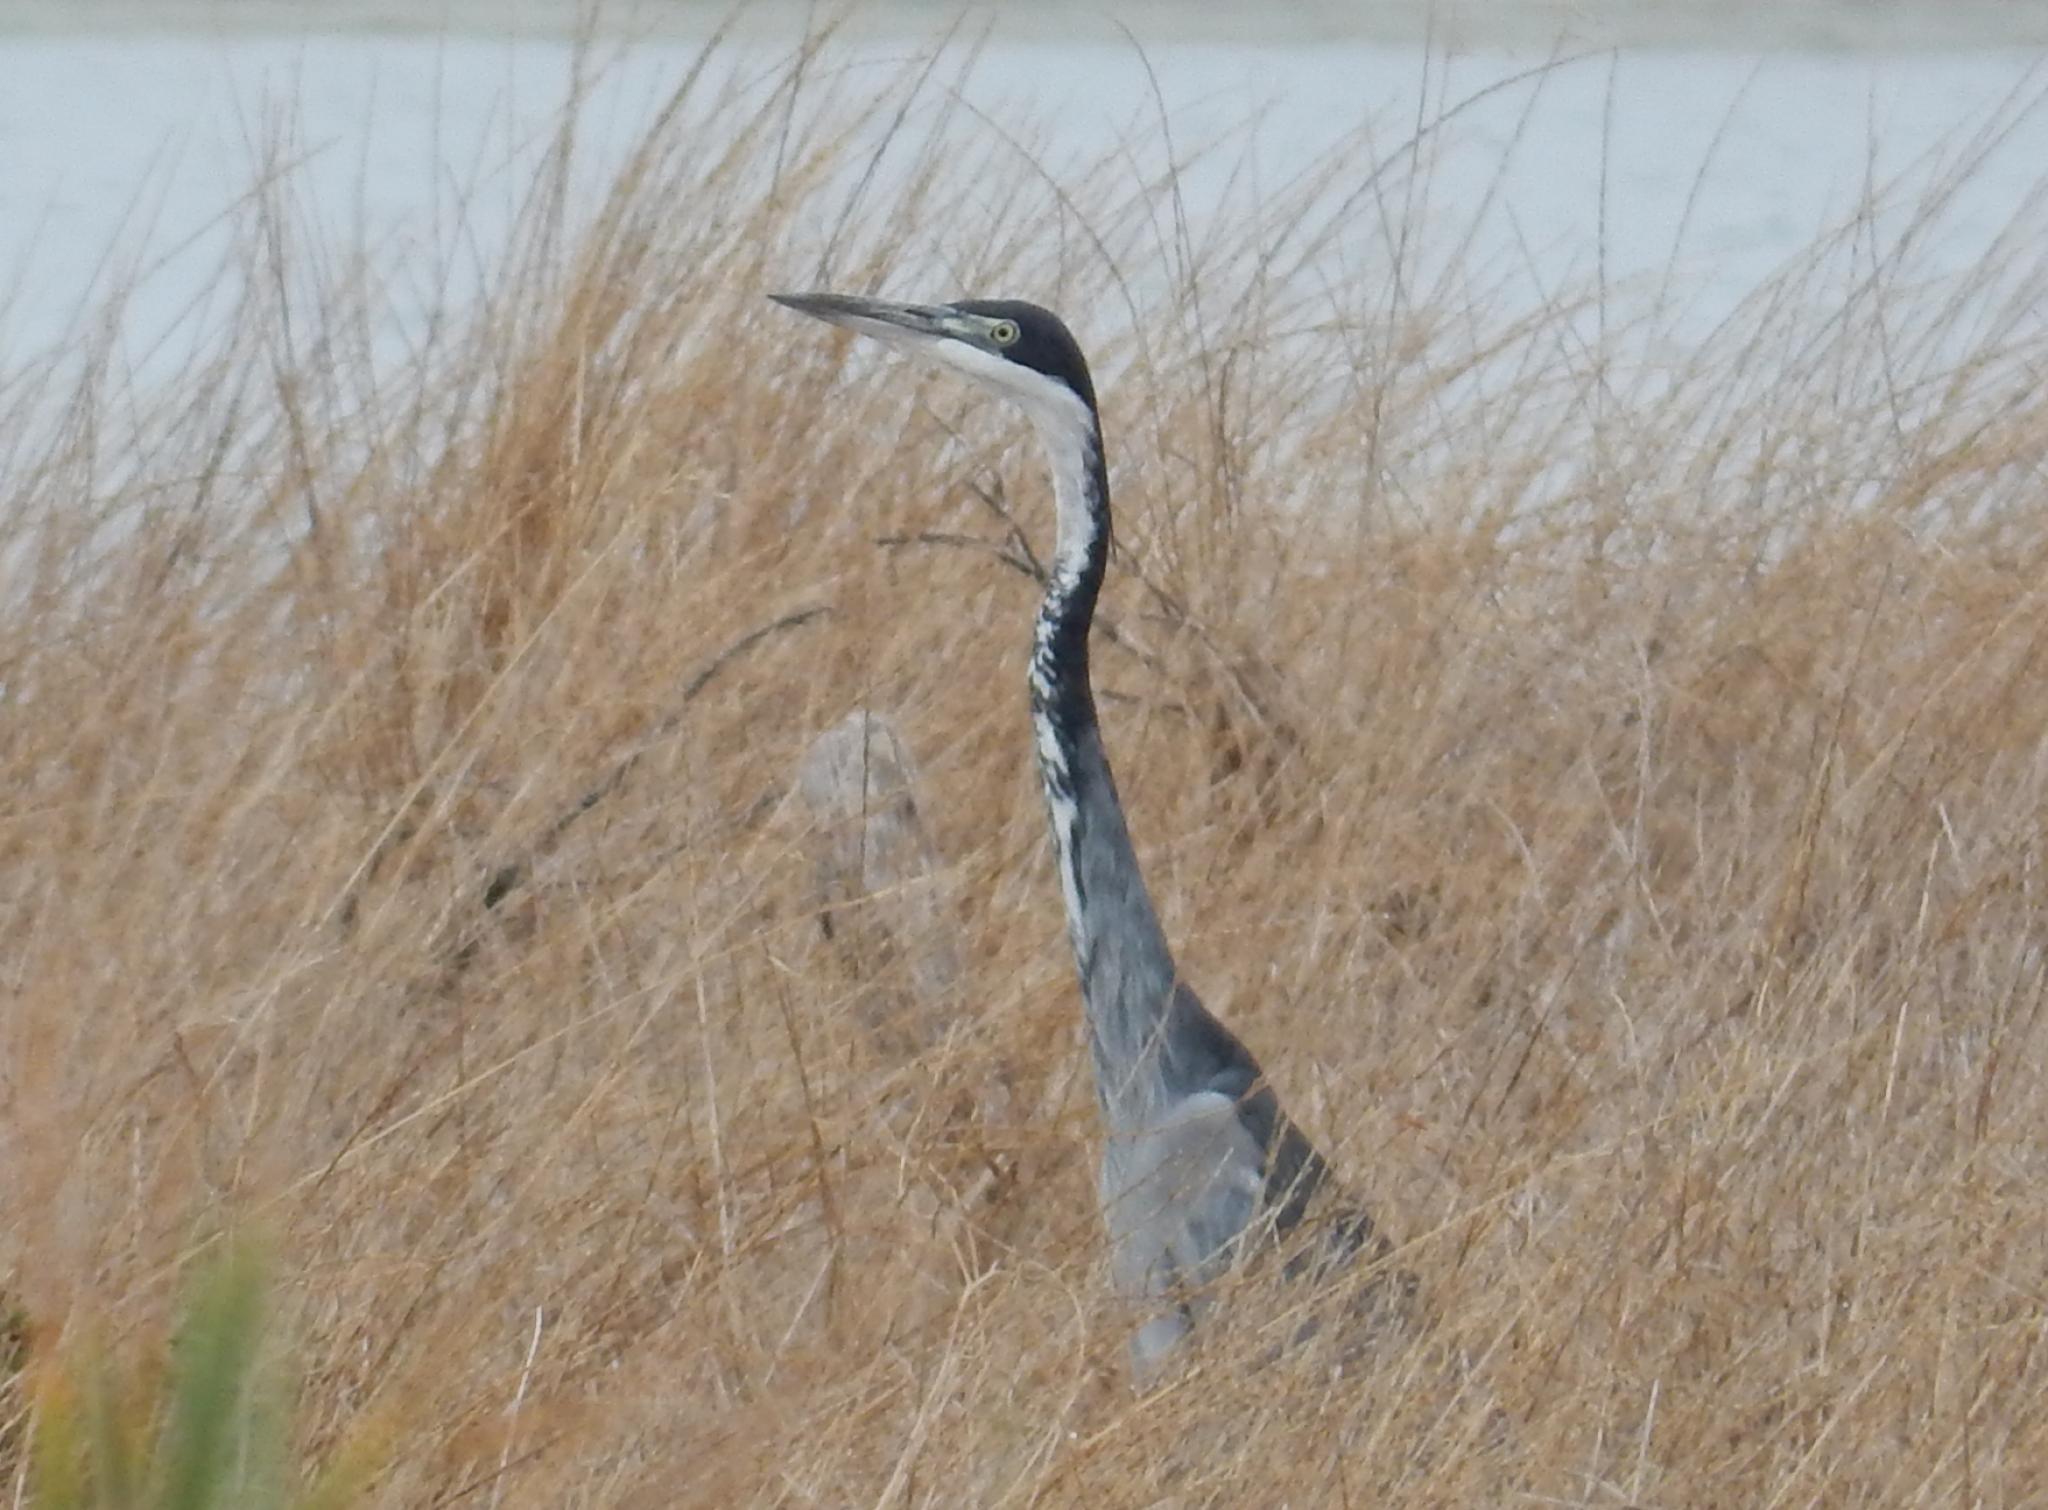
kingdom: Animalia
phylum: Chordata
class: Aves
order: Pelecaniformes
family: Ardeidae
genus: Ardea
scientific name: Ardea melanocephala
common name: Black-headed heron
